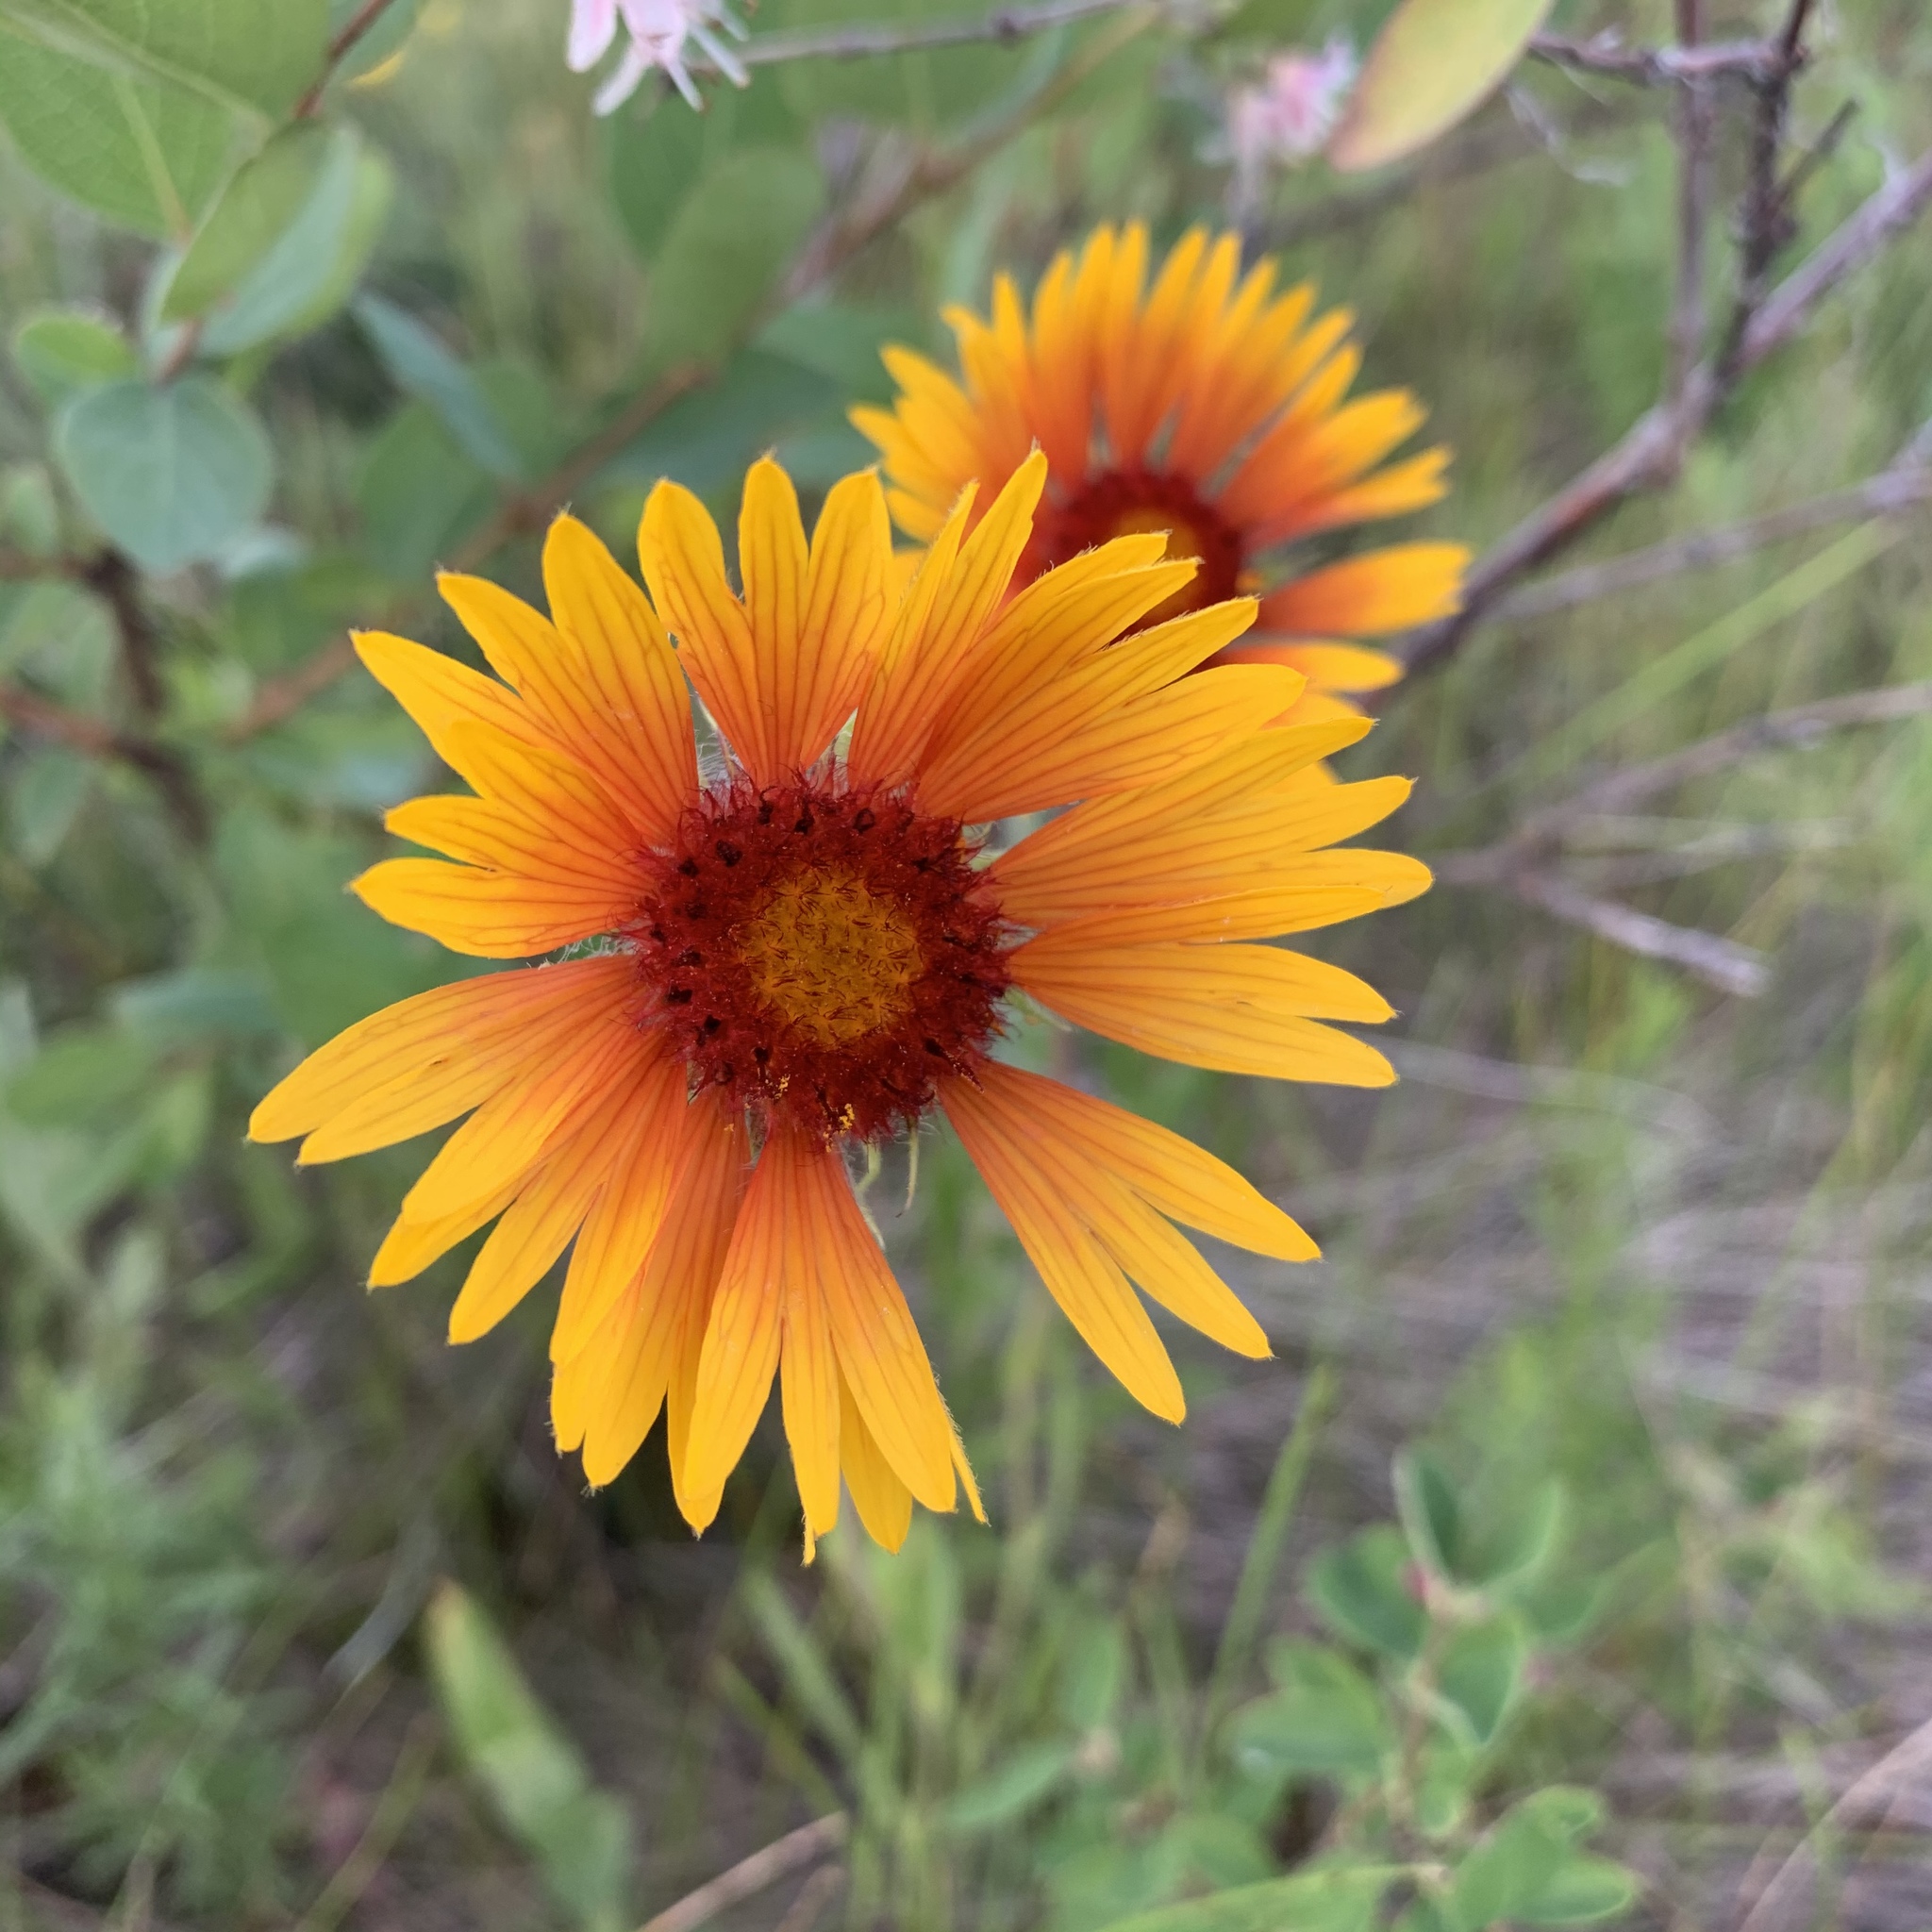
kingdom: Plantae
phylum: Tracheophyta
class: Magnoliopsida
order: Asterales
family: Asteraceae
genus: Gaillardia
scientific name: Gaillardia aristata
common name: Blanket-flower
